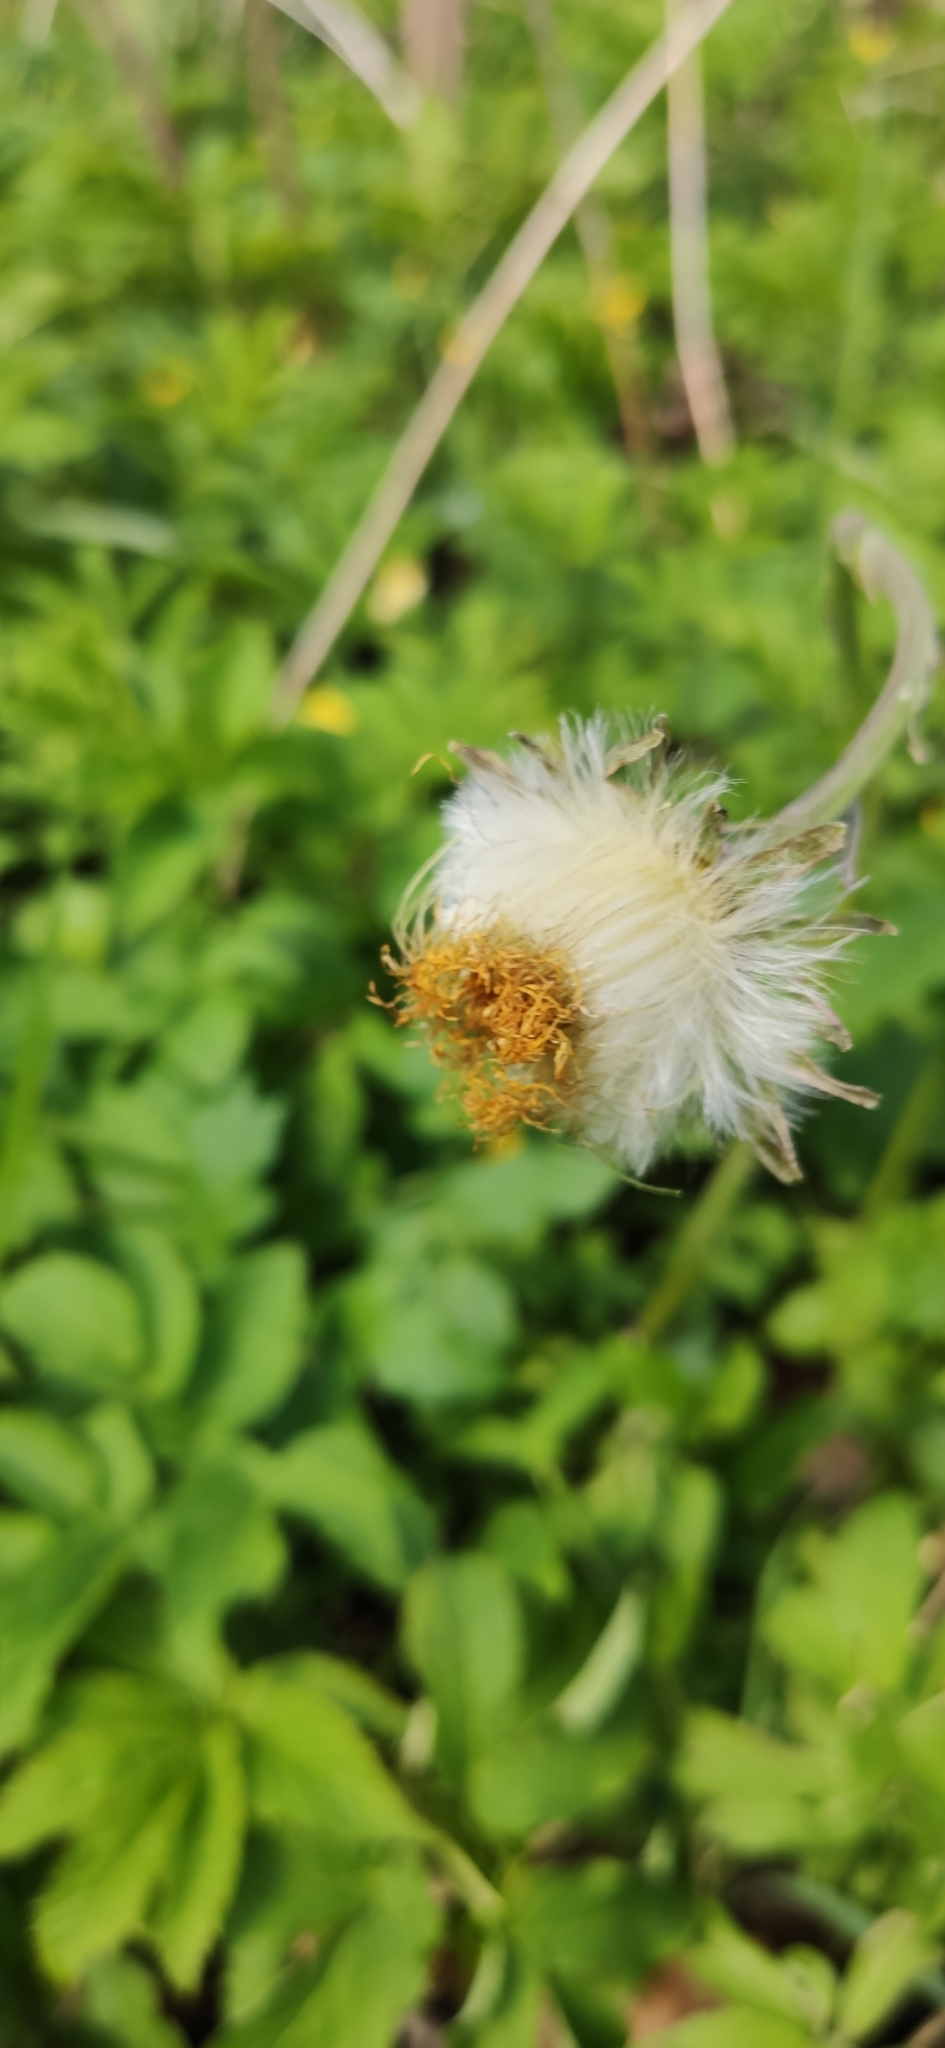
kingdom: Plantae
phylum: Tracheophyta
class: Magnoliopsida
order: Asterales
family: Asteraceae
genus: Tussilago
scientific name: Tussilago farfara
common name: Coltsfoot
